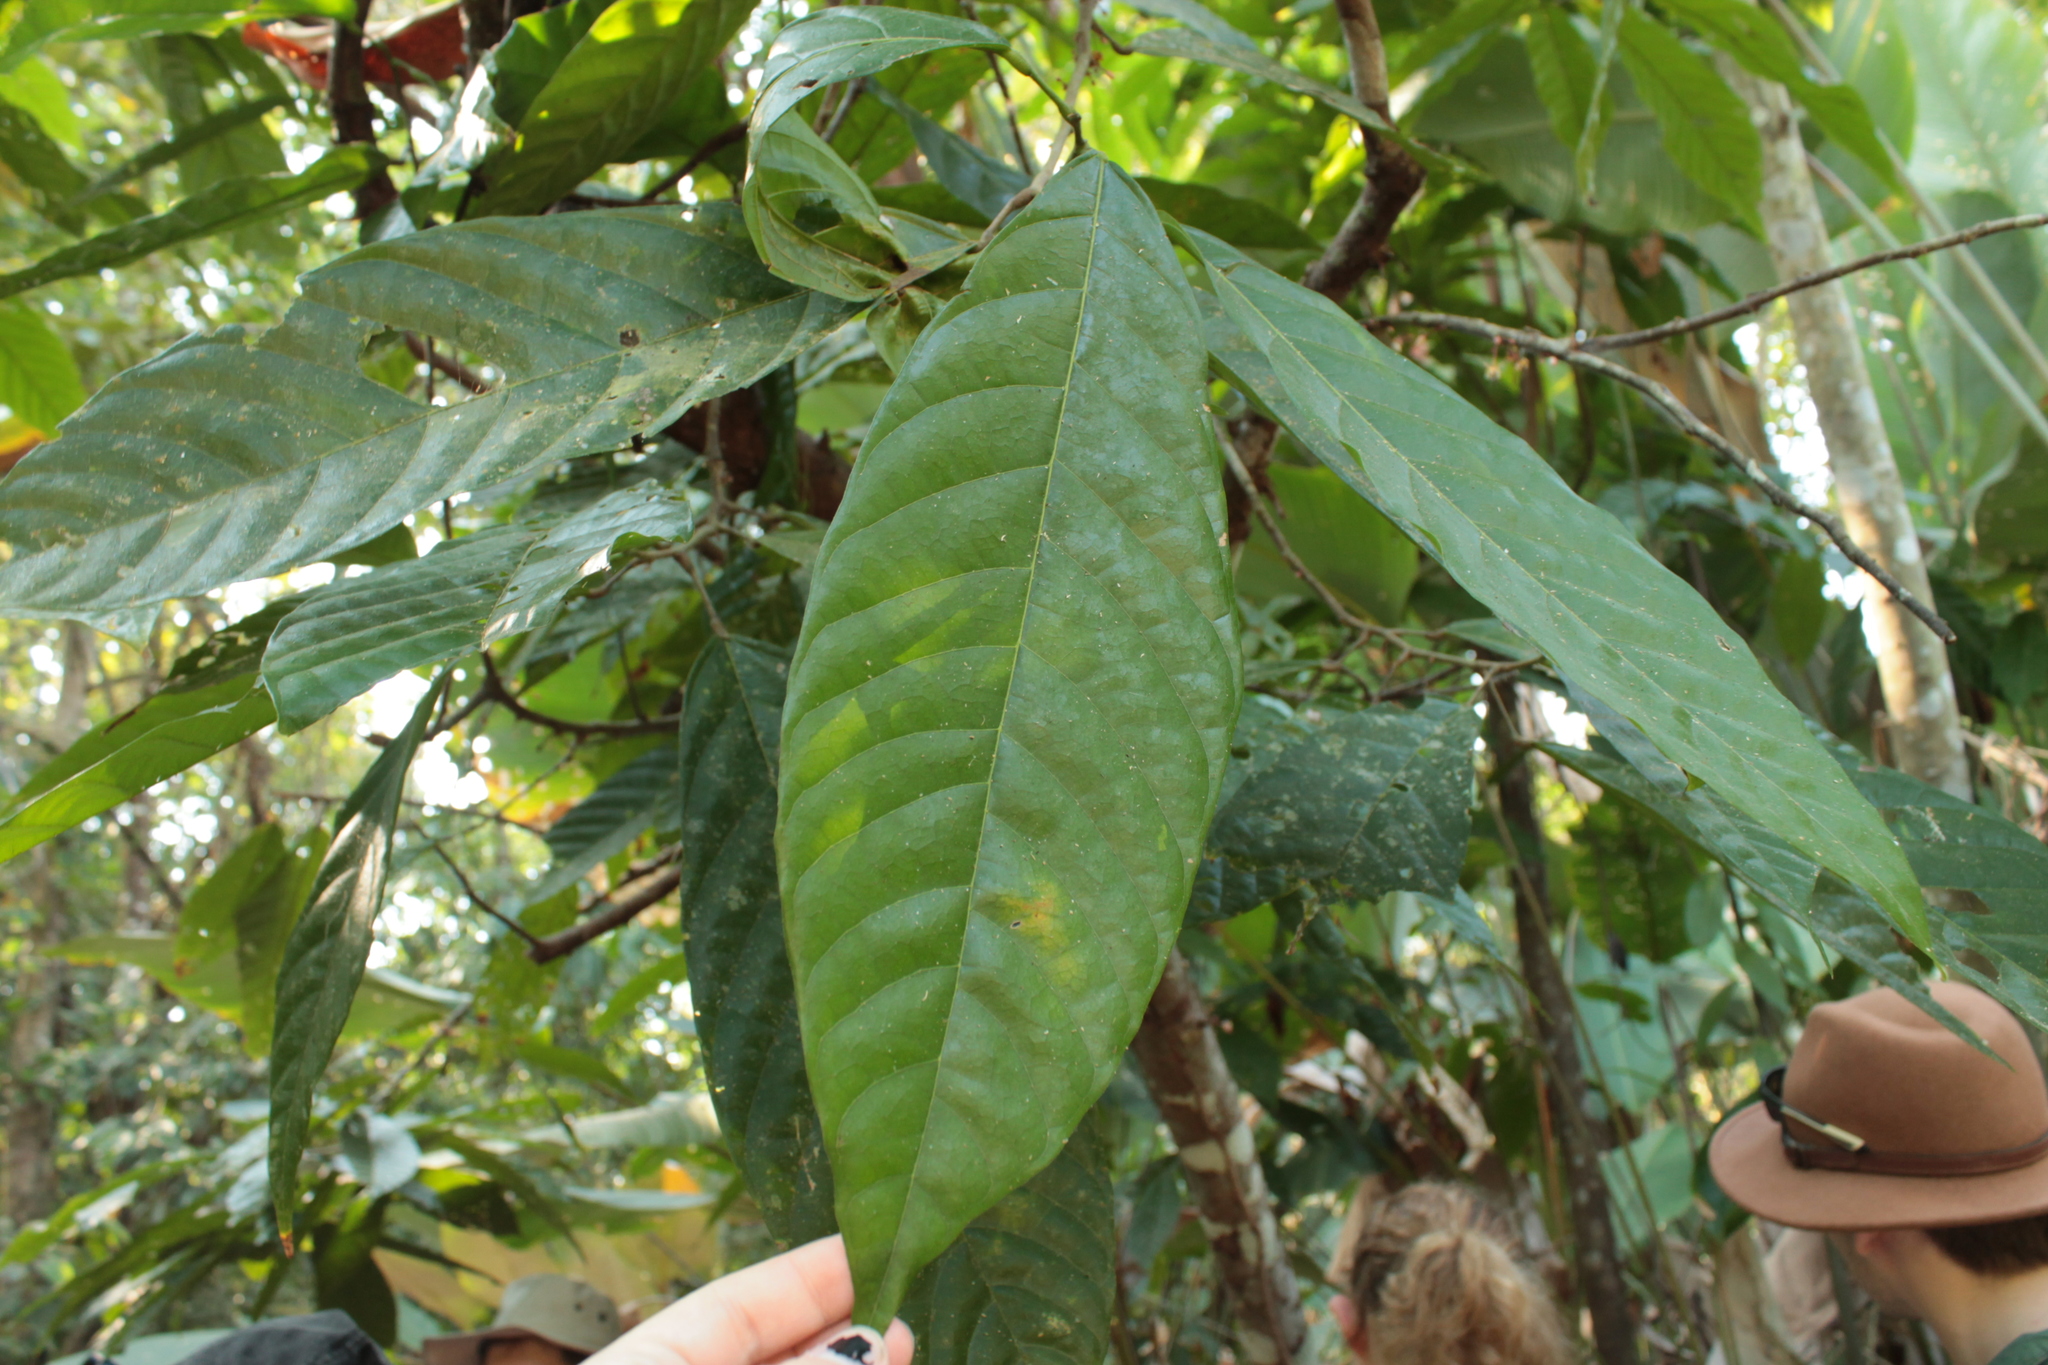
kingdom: Plantae
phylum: Tracheophyta
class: Magnoliopsida
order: Malvales
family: Malvaceae
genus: Theobroma
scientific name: Theobroma cacao
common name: Cocoa
